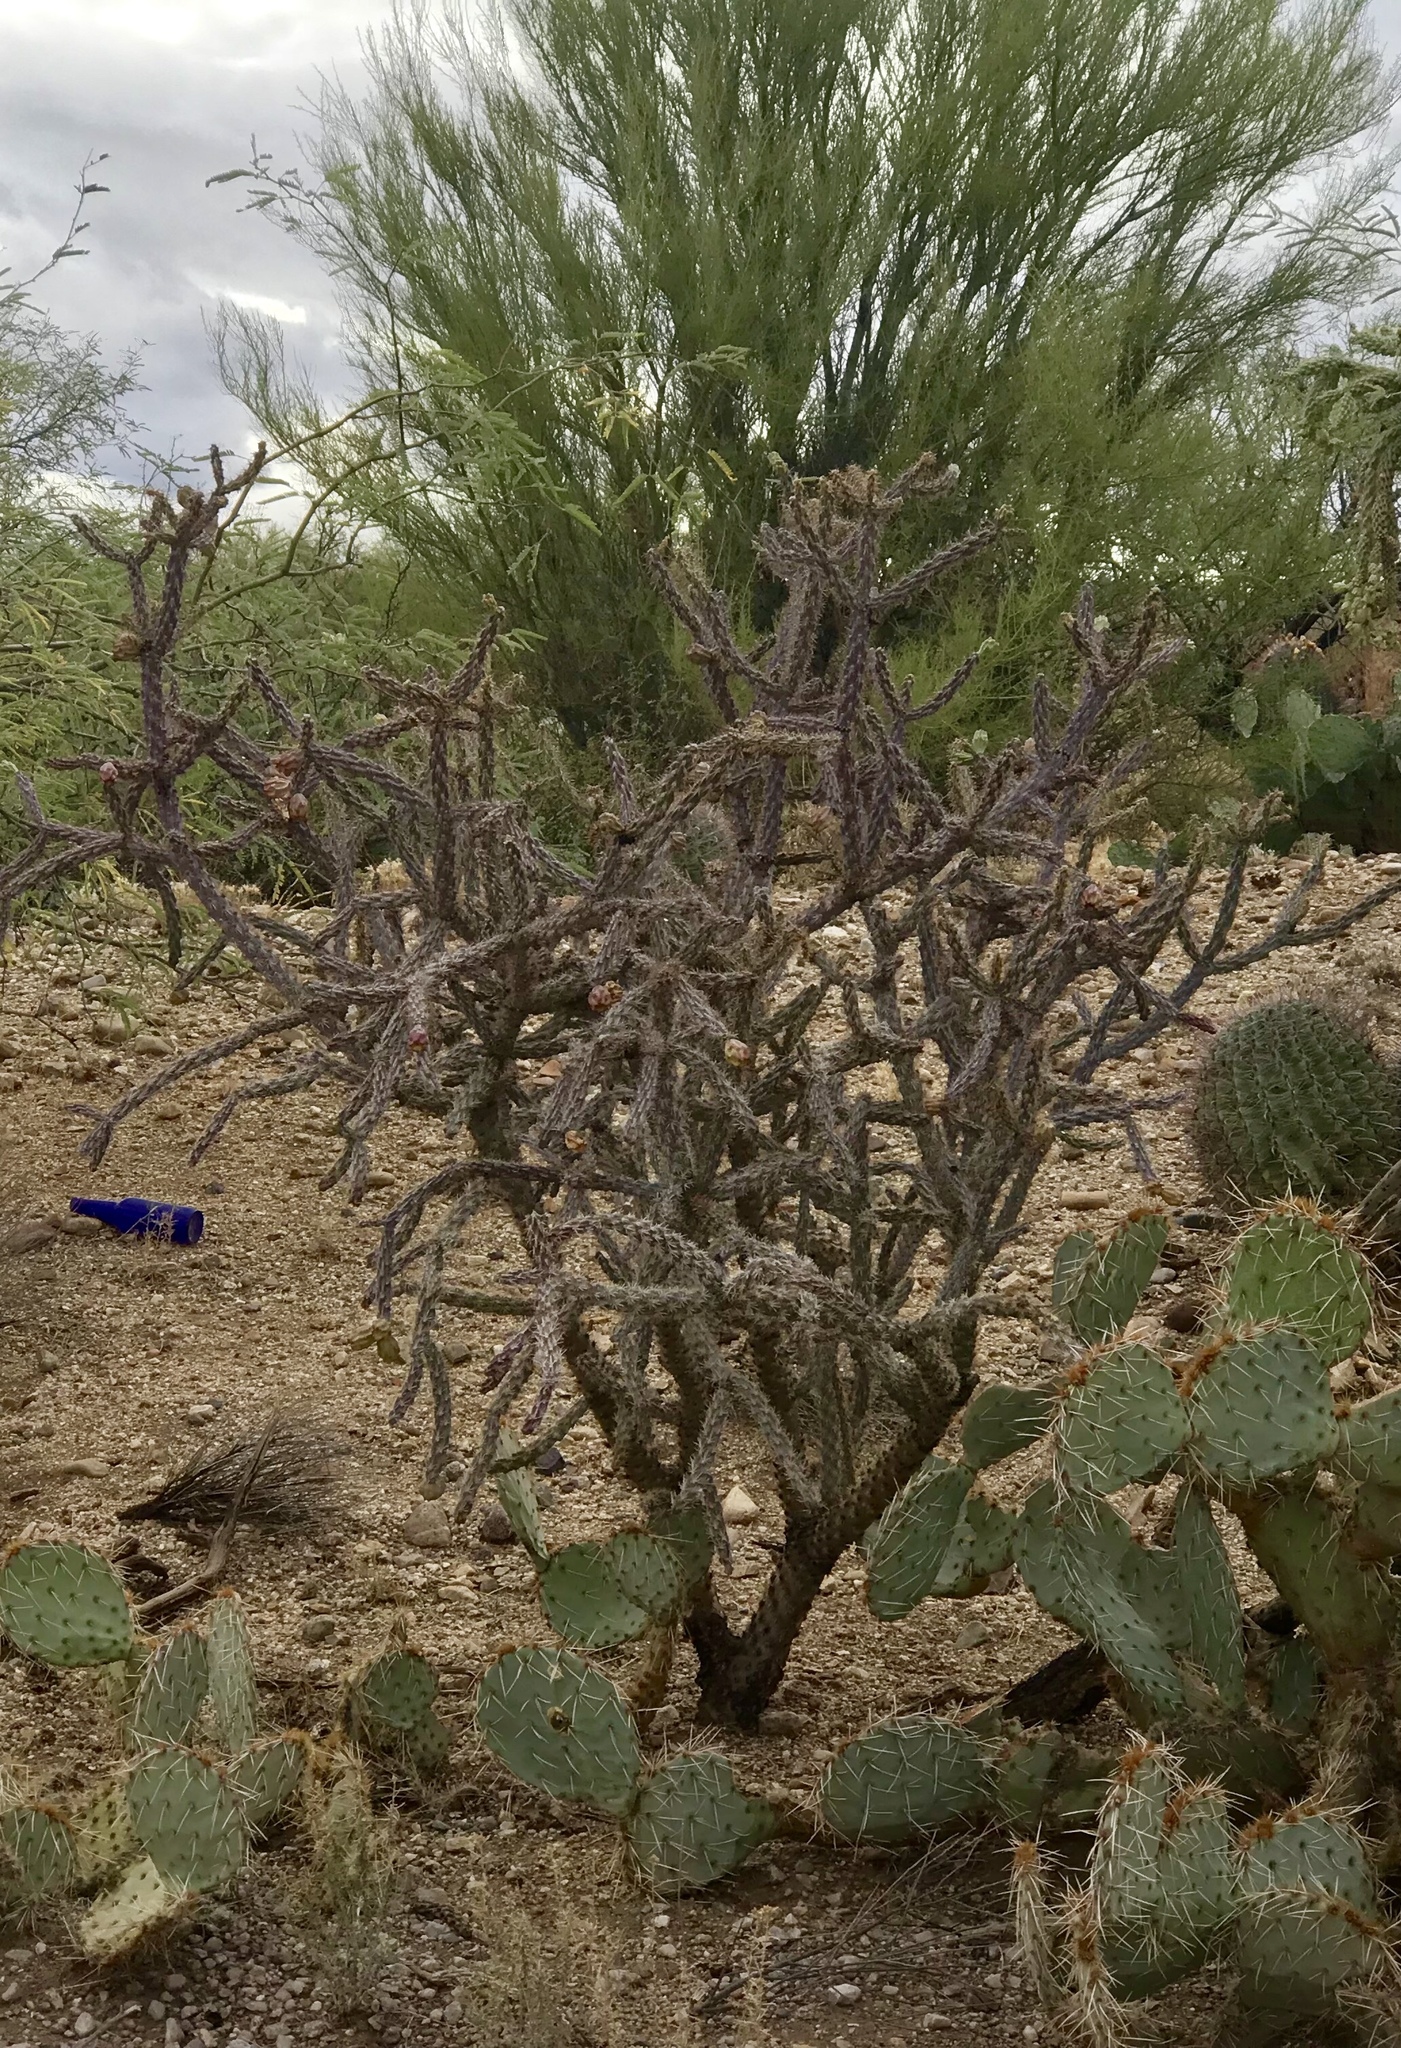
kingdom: Plantae
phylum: Tracheophyta
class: Magnoliopsida
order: Caryophyllales
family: Cactaceae
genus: Cylindropuntia
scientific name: Cylindropuntia imbricata
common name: Candelabrum cactus
